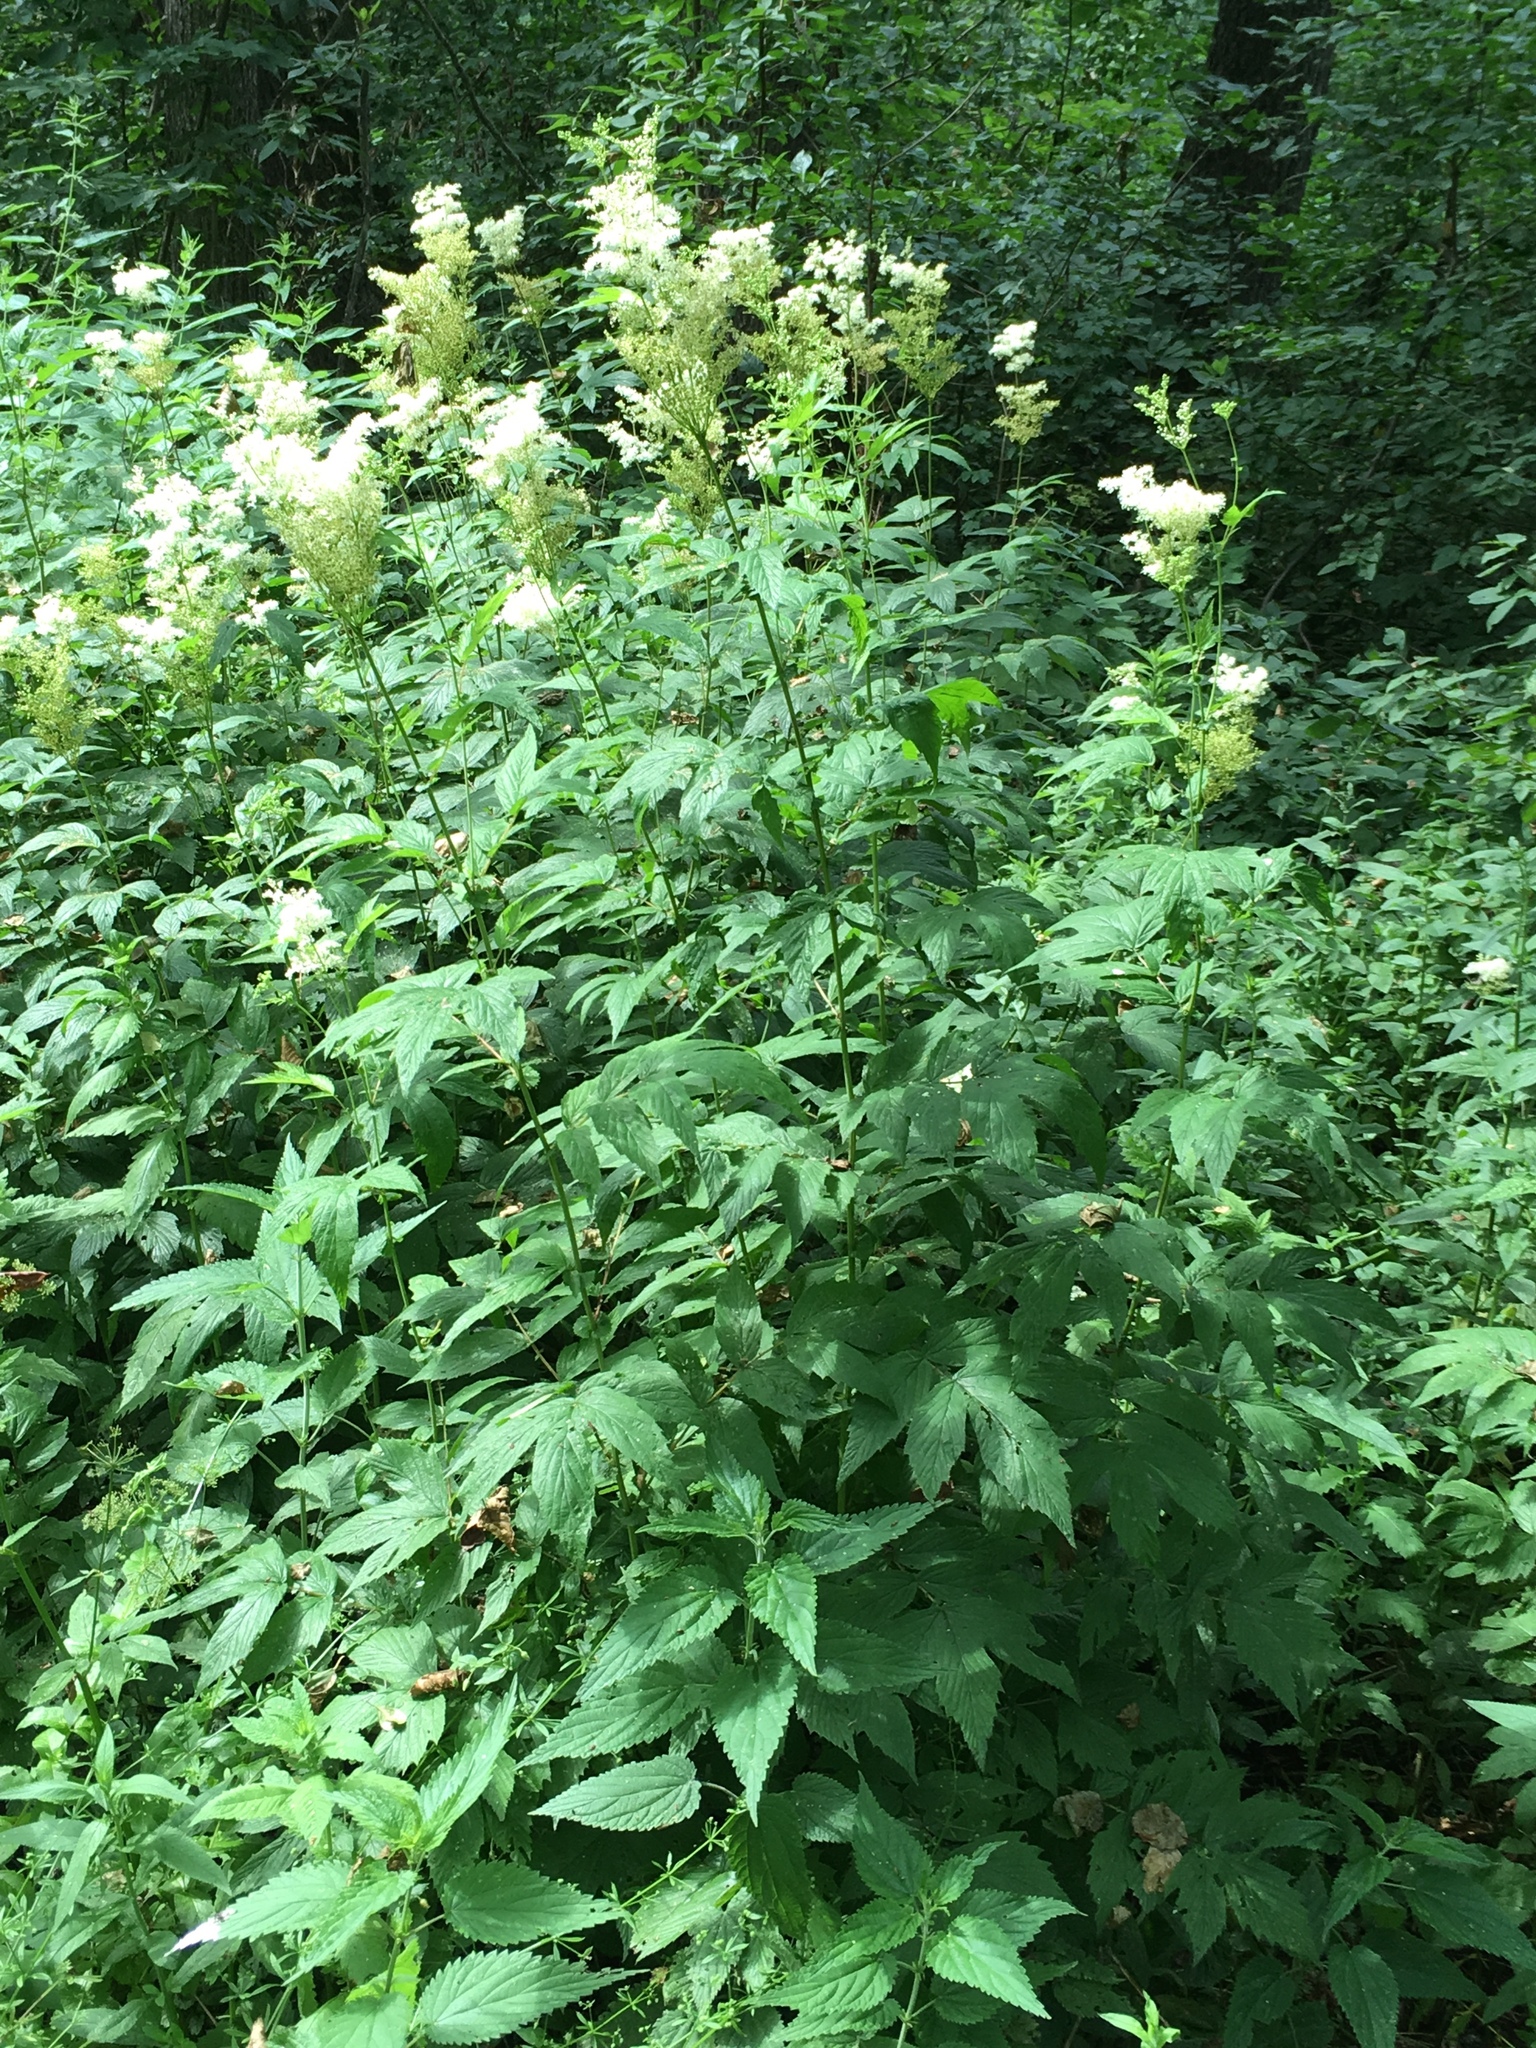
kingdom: Plantae
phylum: Tracheophyta
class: Magnoliopsida
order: Rosales
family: Rosaceae
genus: Filipendula
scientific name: Filipendula ulmaria
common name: Meadowsweet
